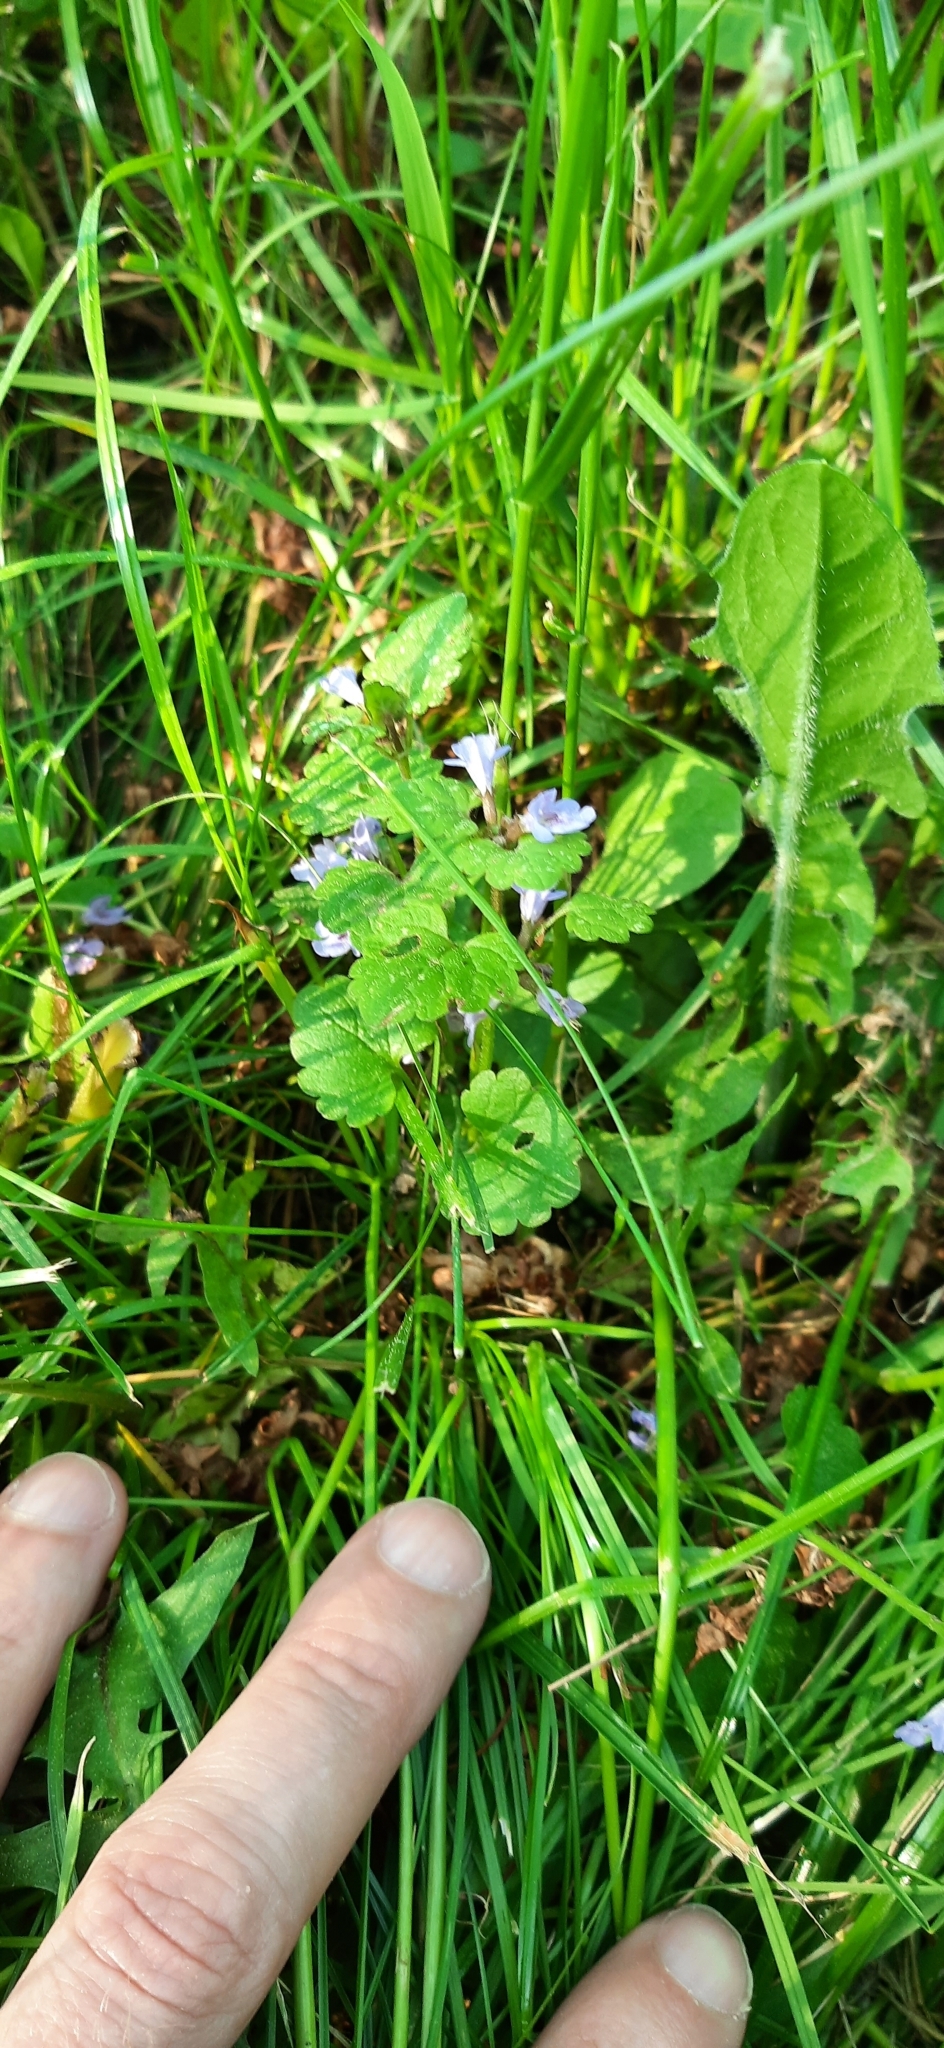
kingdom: Plantae
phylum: Tracheophyta
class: Magnoliopsida
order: Lamiales
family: Lamiaceae
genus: Glechoma
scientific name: Glechoma hederacea
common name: Ground ivy
